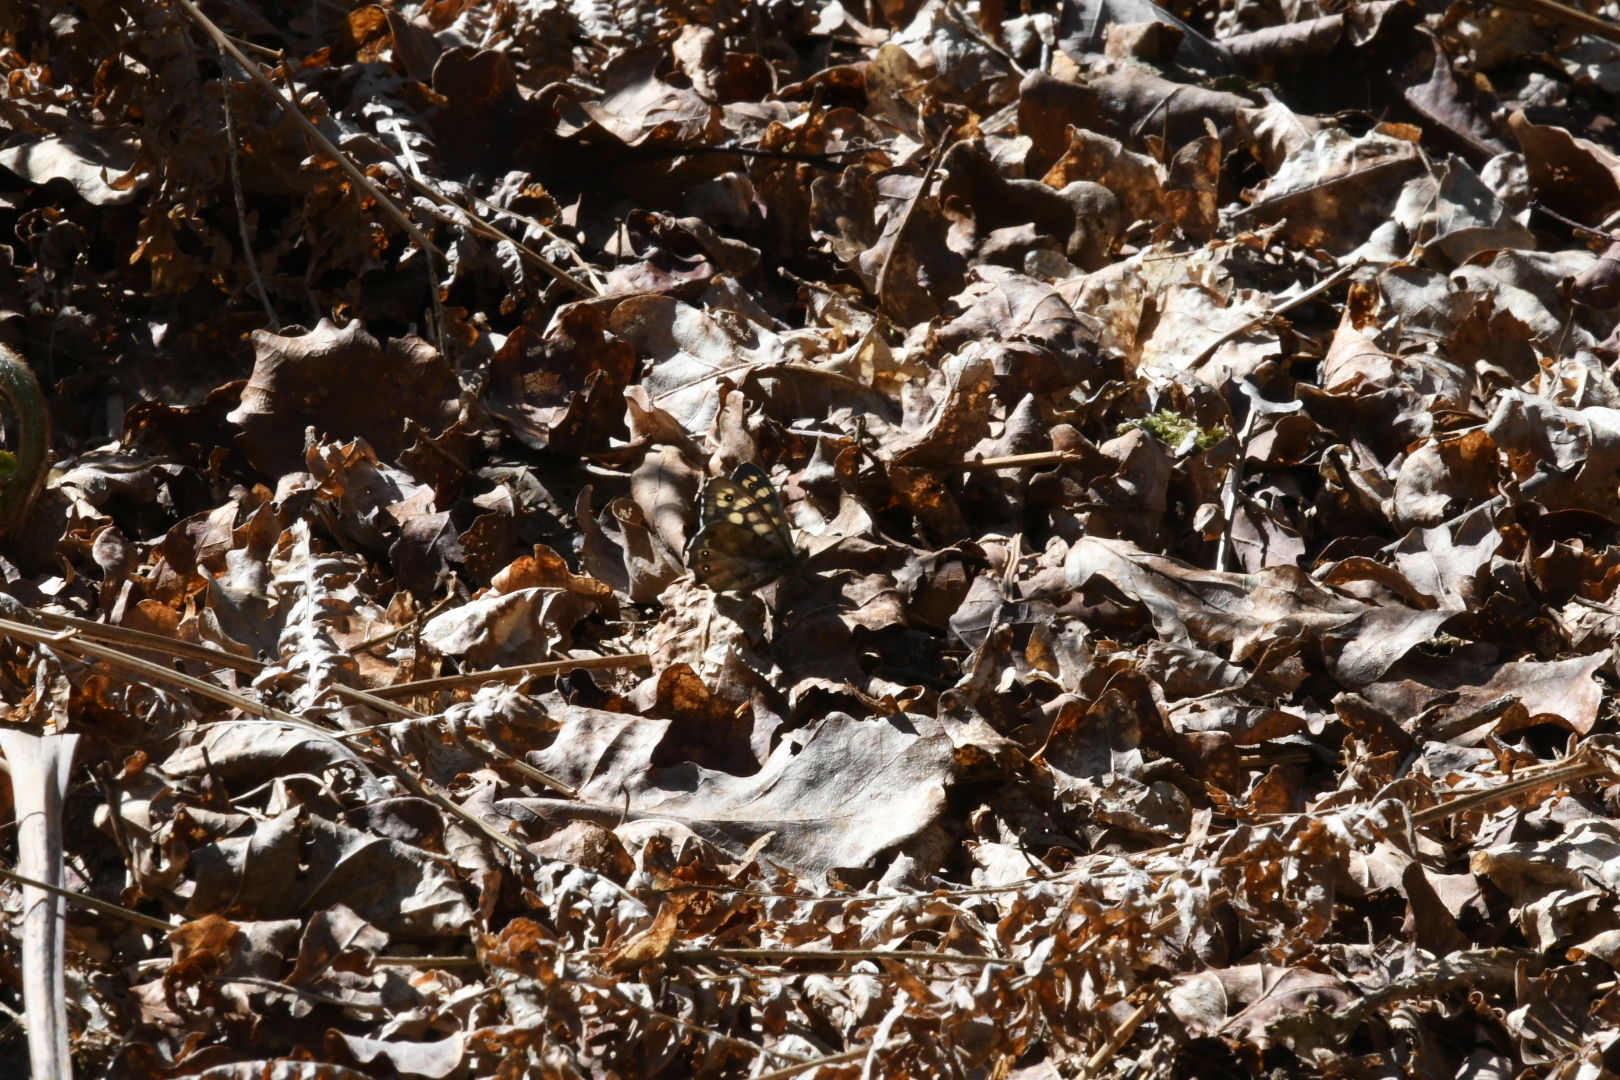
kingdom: Animalia
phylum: Arthropoda
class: Insecta
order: Lepidoptera
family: Nymphalidae
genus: Pararge
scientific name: Pararge aegeria
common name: Speckled wood
